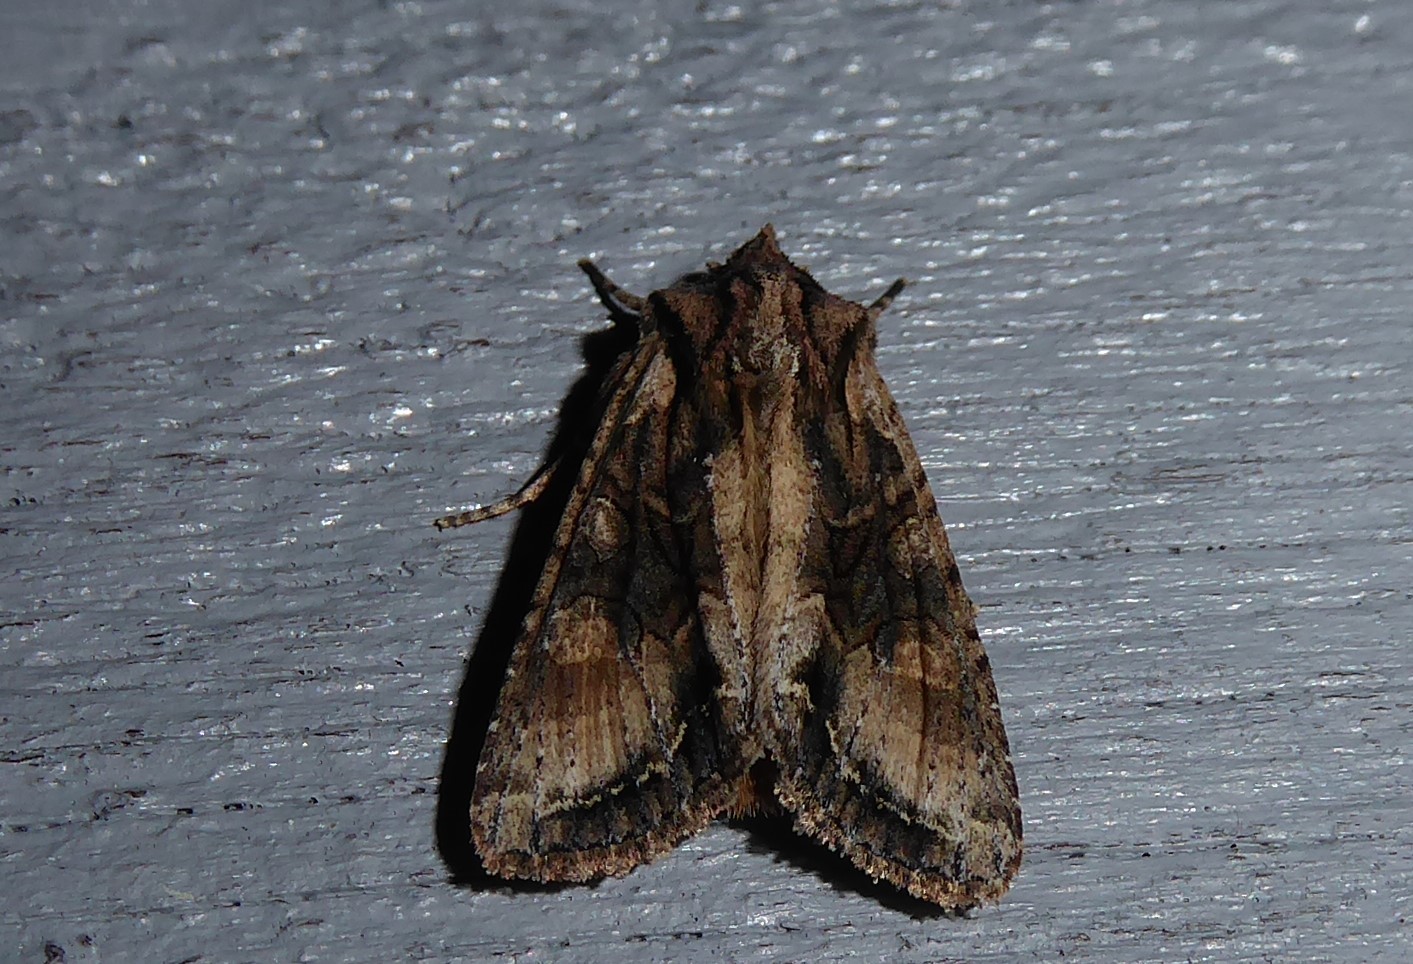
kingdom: Animalia
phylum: Arthropoda
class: Insecta
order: Lepidoptera
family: Noctuidae
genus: Ichneutica
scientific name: Ichneutica mutans
